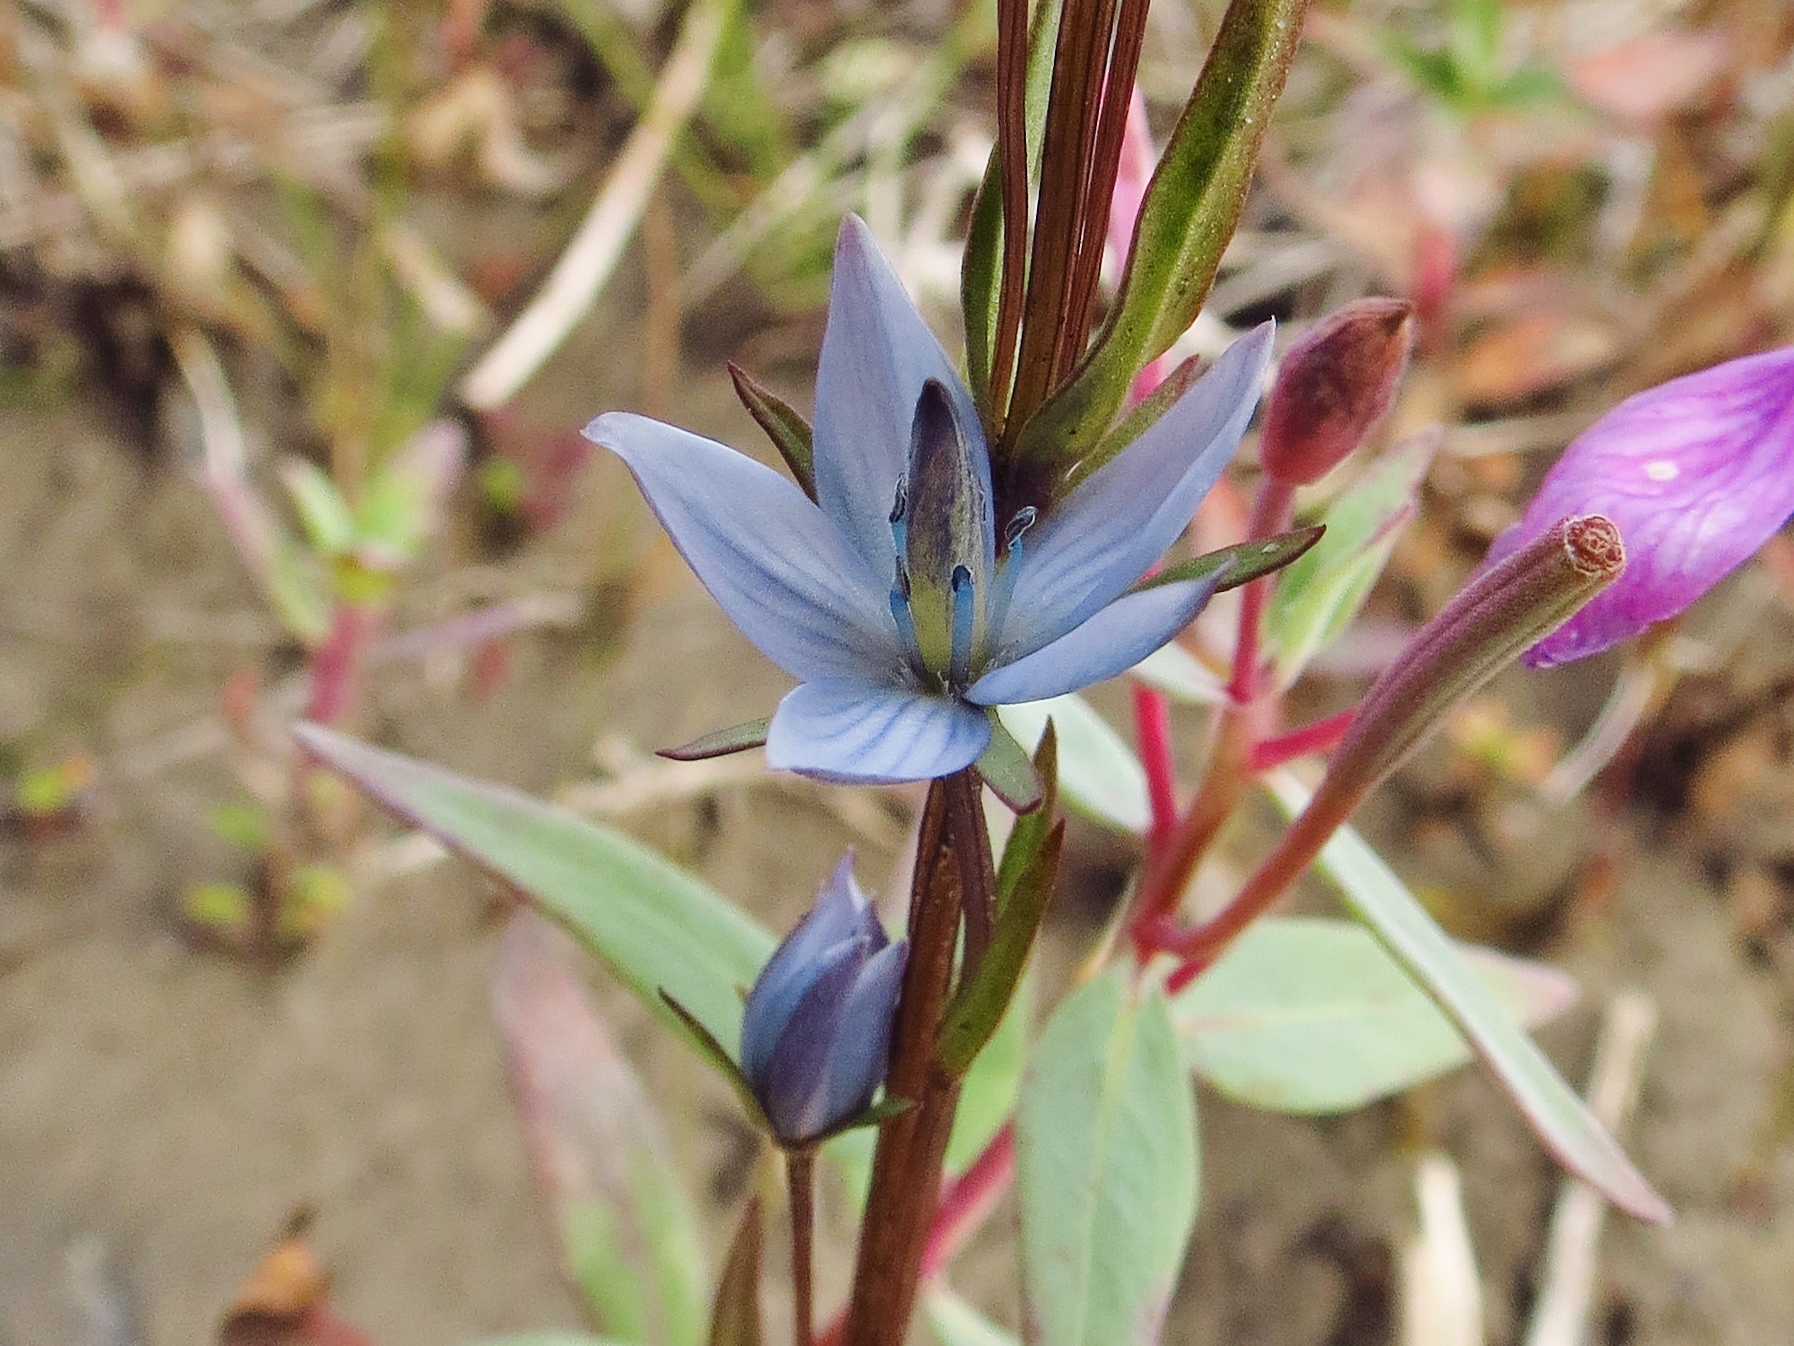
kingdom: Plantae
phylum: Tracheophyta
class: Magnoliopsida
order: Gentianales
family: Gentianaceae
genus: Lomatogonium
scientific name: Lomatogonium rotatum
